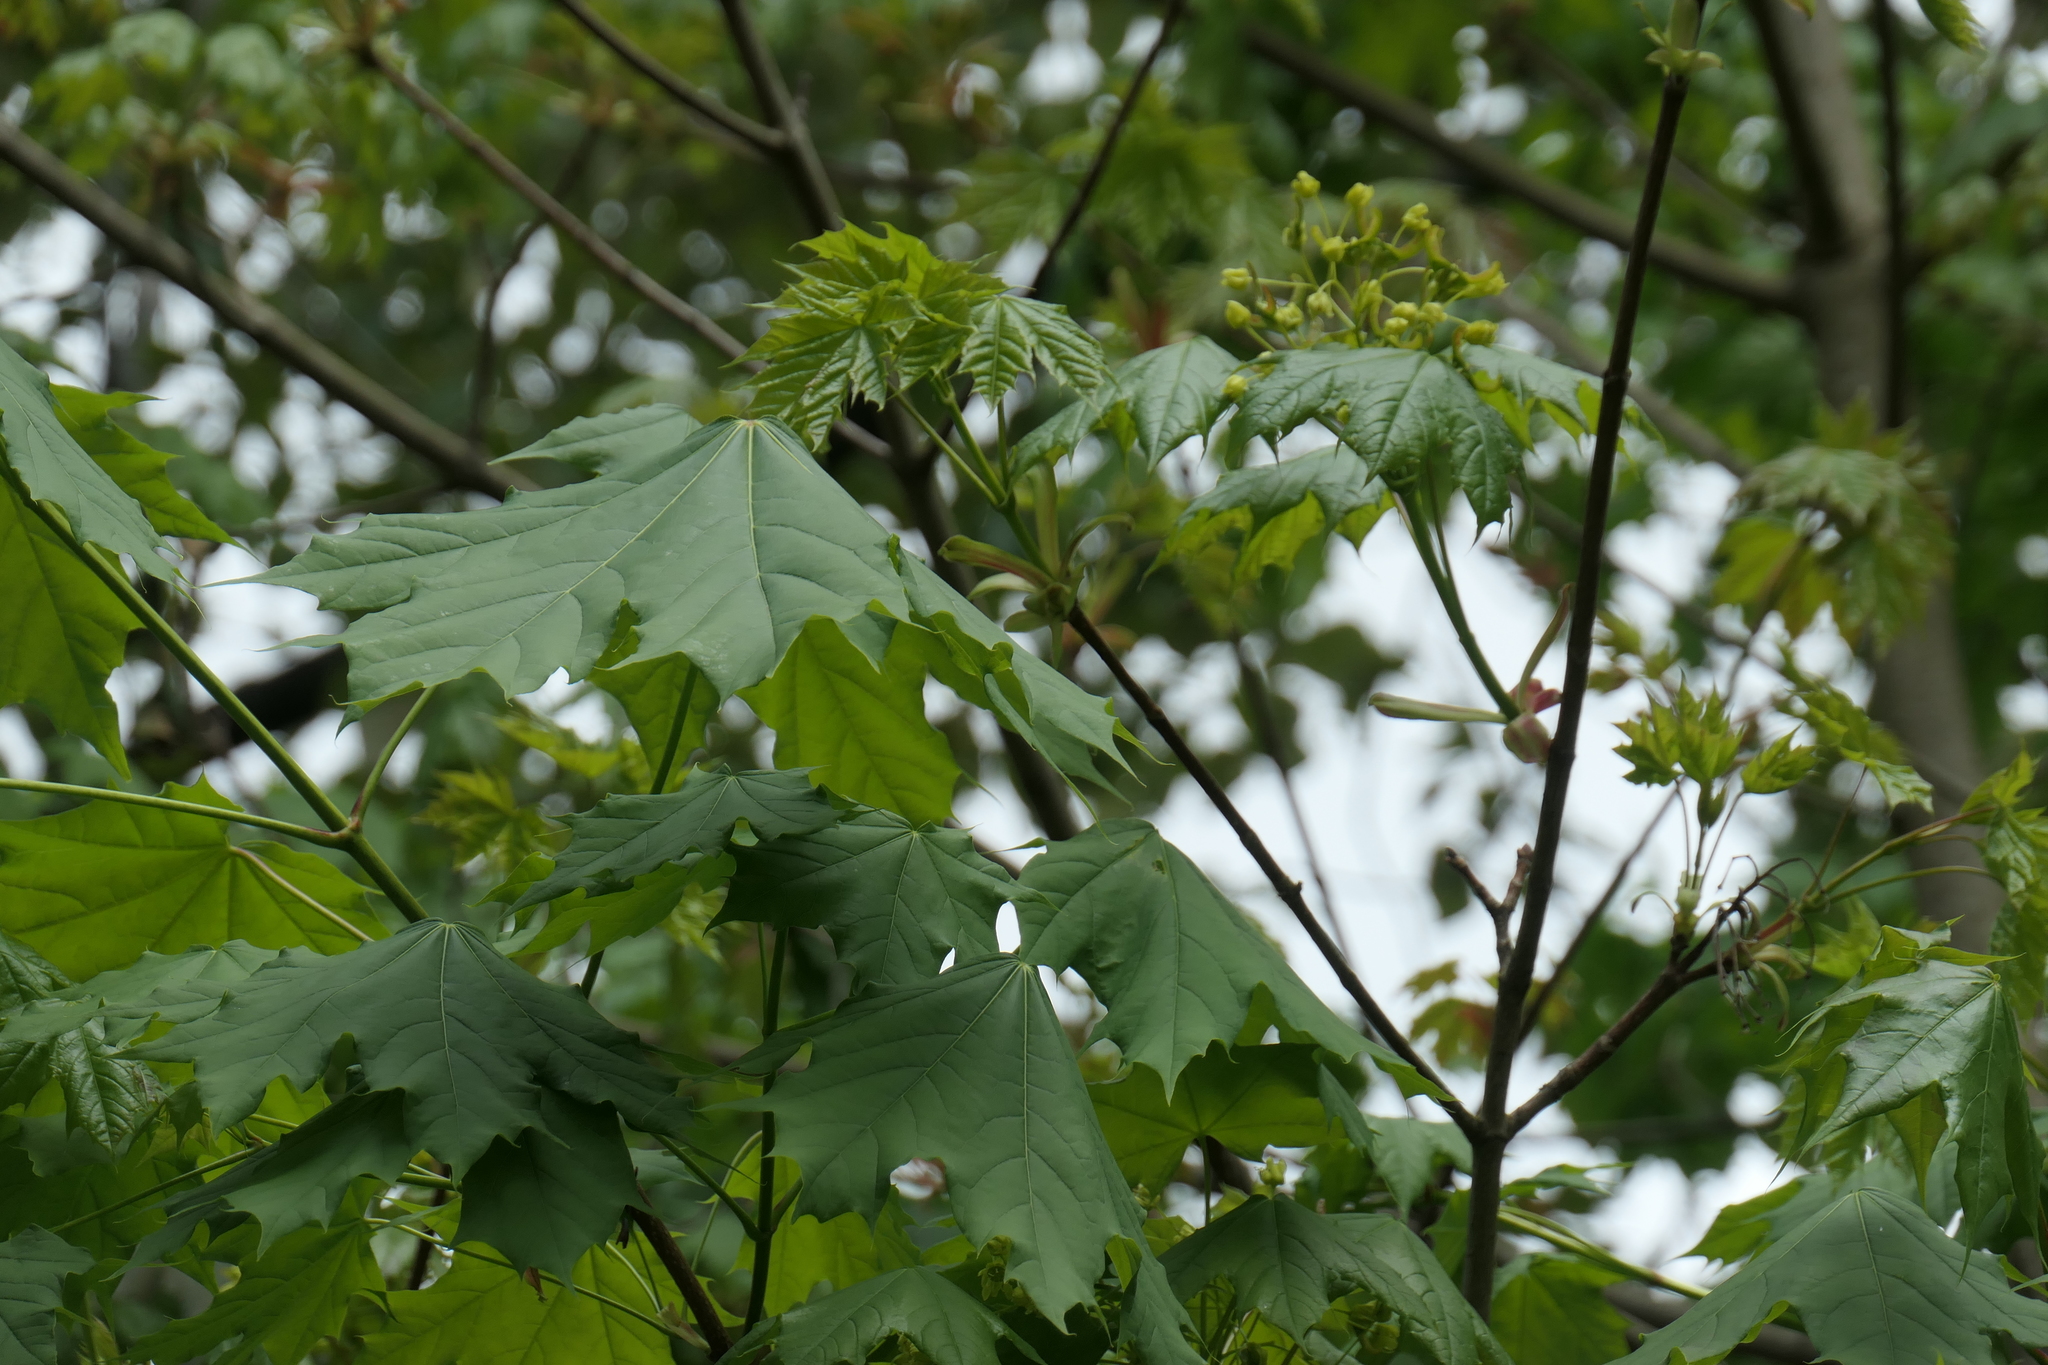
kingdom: Plantae
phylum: Tracheophyta
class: Magnoliopsida
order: Sapindales
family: Sapindaceae
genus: Acer
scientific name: Acer platanoides
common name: Norway maple
